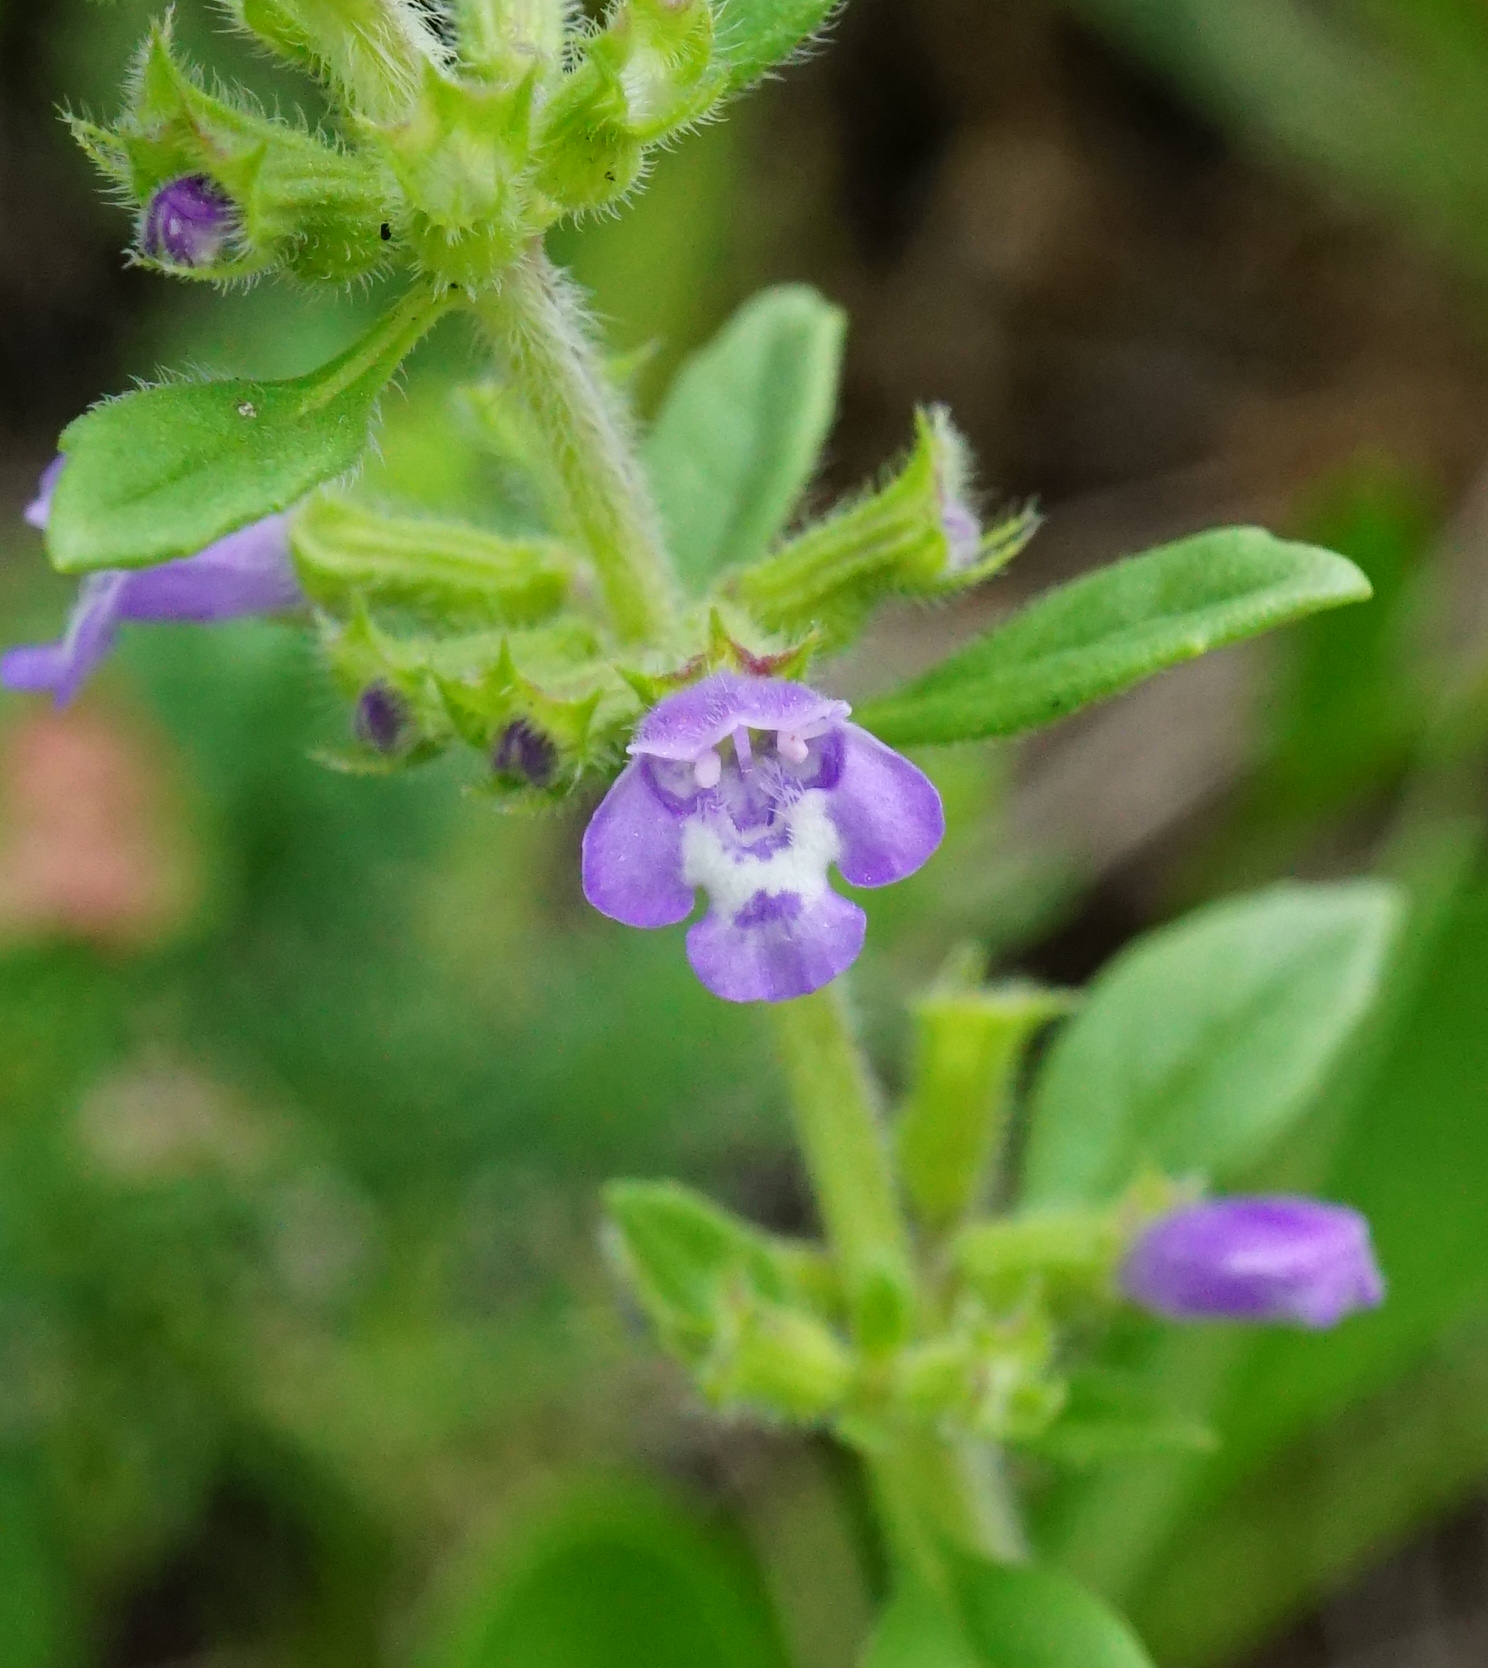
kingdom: Plantae
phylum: Tracheophyta
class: Magnoliopsida
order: Lamiales
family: Lamiaceae
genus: Clinopodium
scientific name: Clinopodium acinos
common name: Basil thyme
